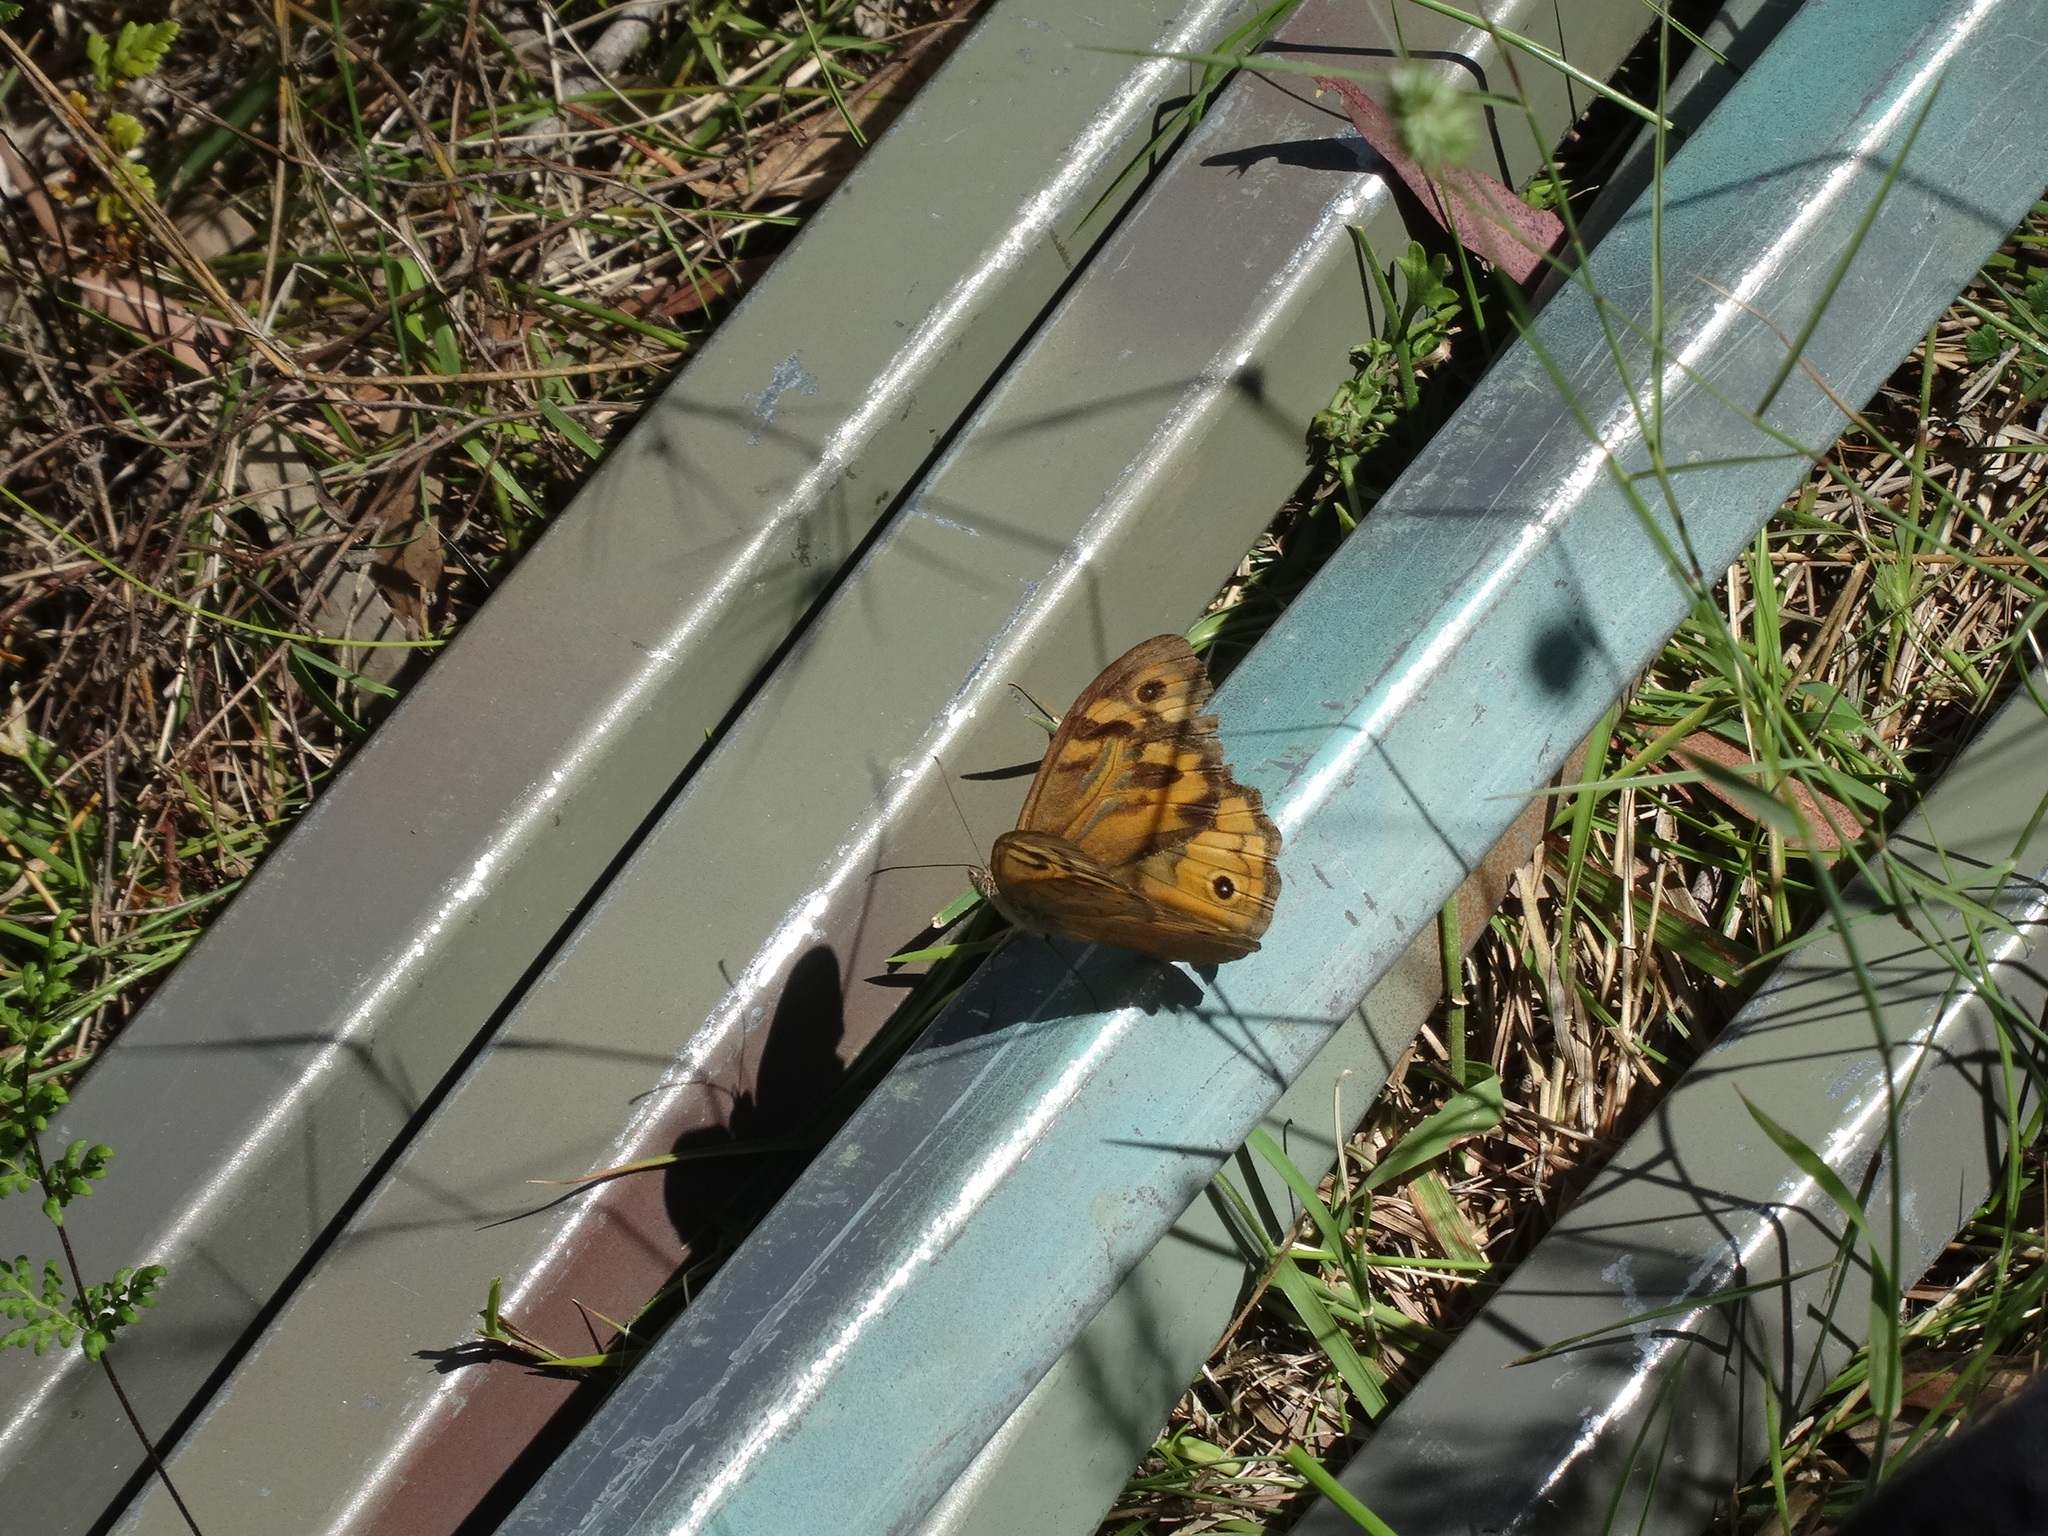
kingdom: Animalia
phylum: Arthropoda
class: Insecta
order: Lepidoptera
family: Nymphalidae
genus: Heteronympha
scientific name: Heteronympha merope
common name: Common brown
